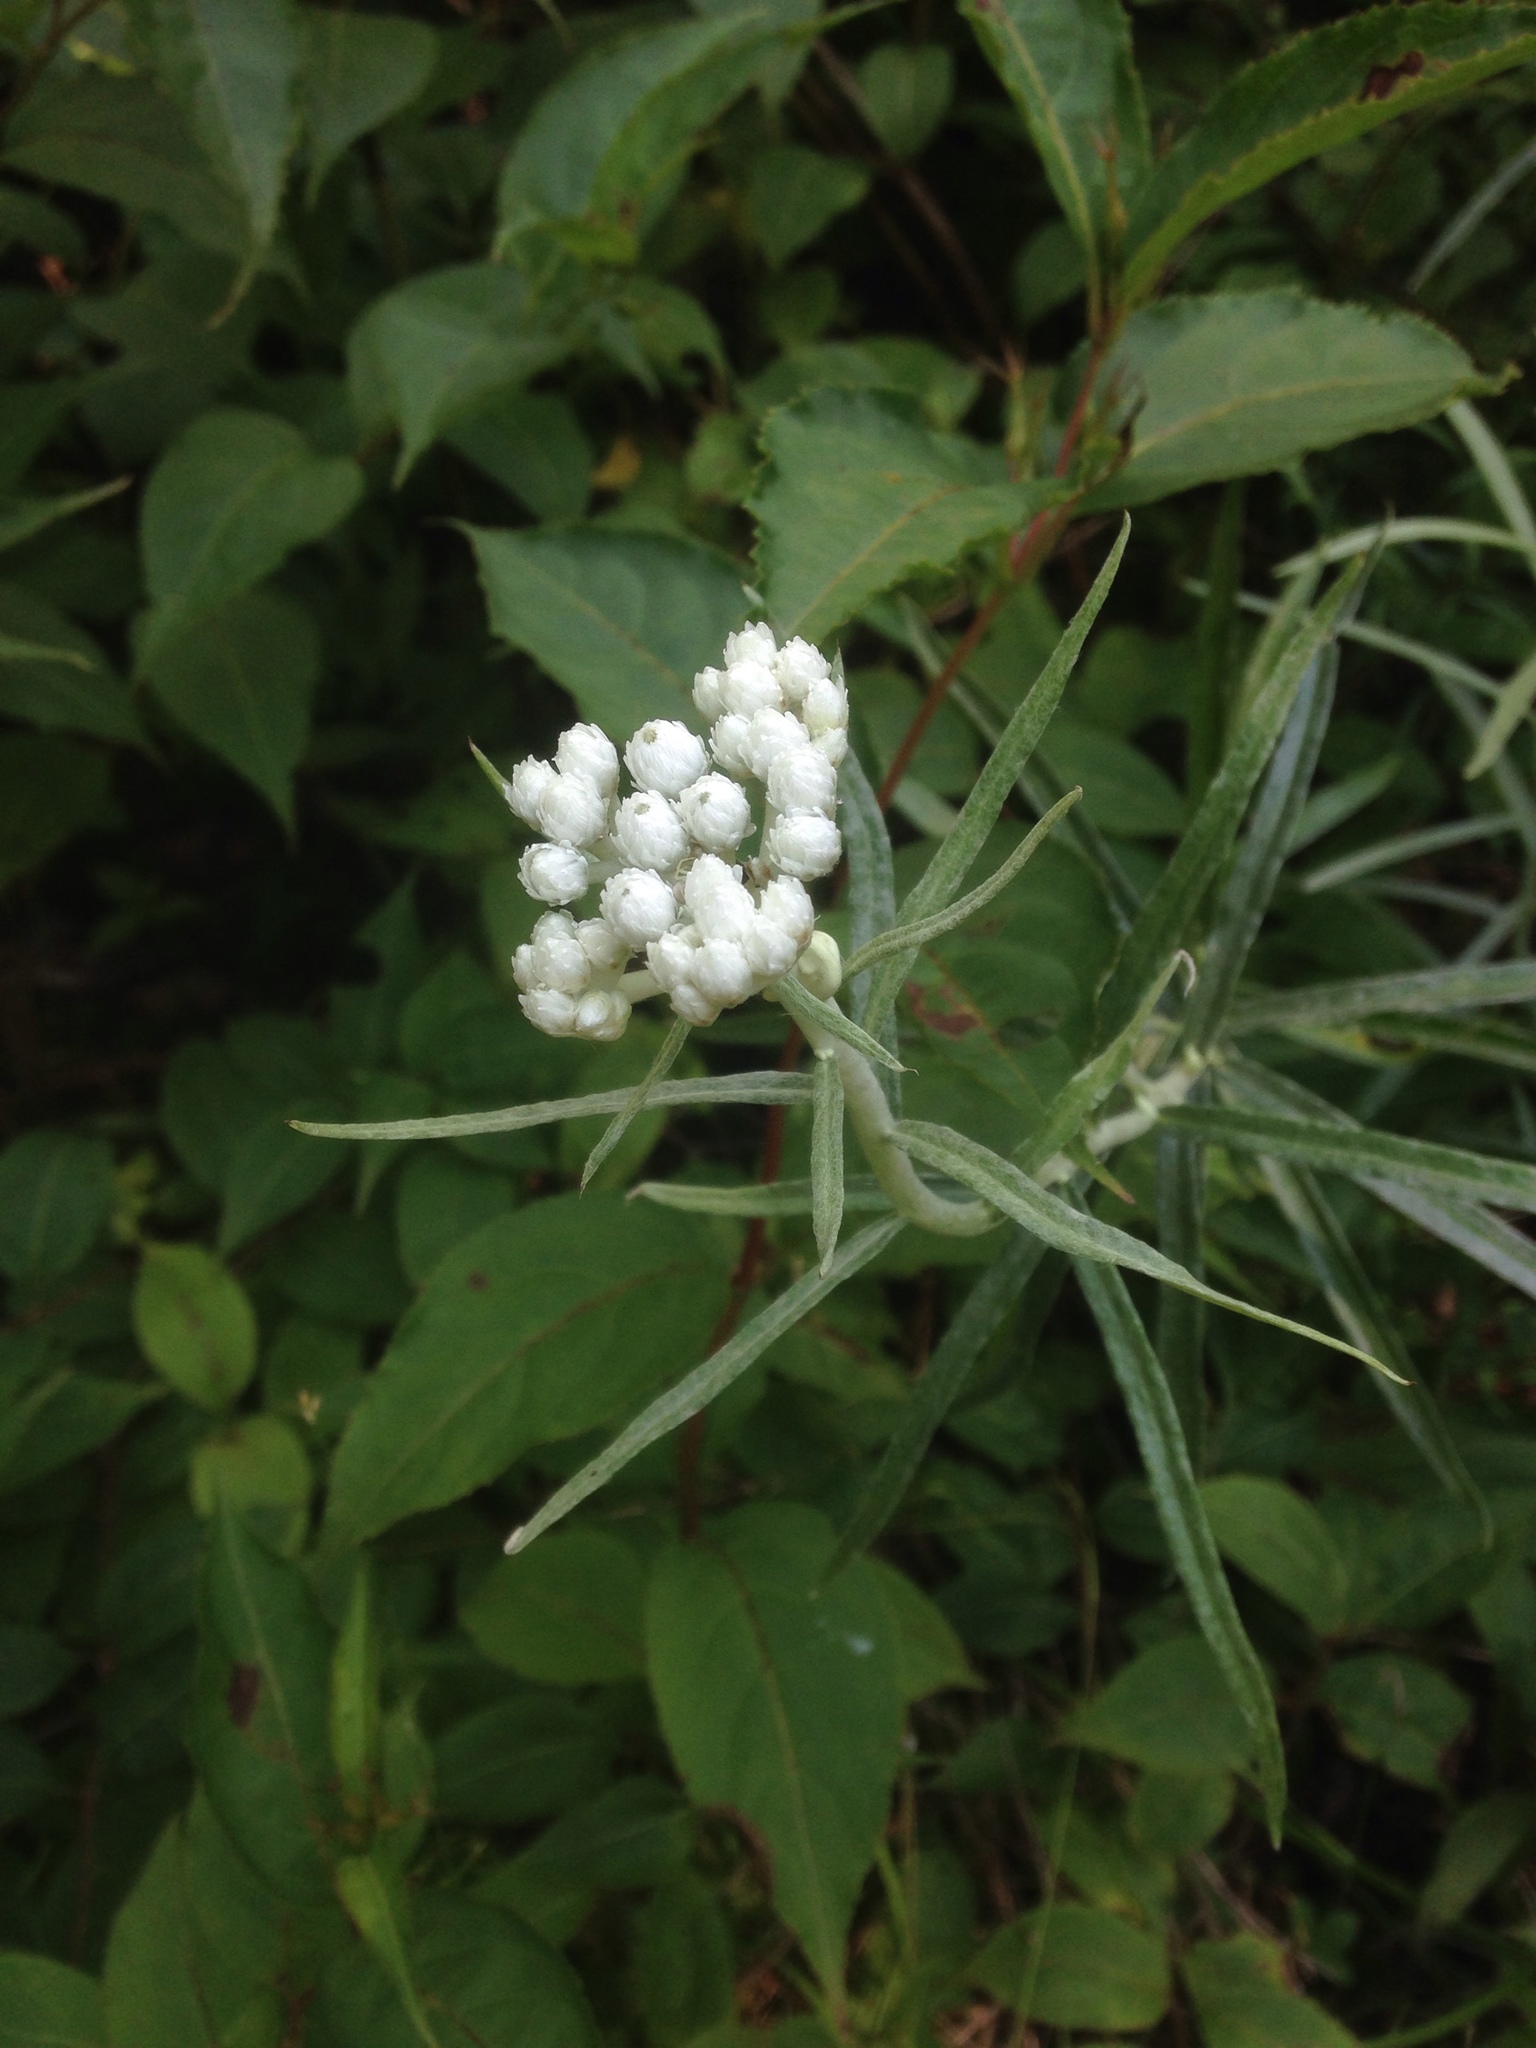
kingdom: Plantae
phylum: Tracheophyta
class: Magnoliopsida
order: Asterales
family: Asteraceae
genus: Anaphalis
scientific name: Anaphalis margaritacea
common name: Pearly everlasting
